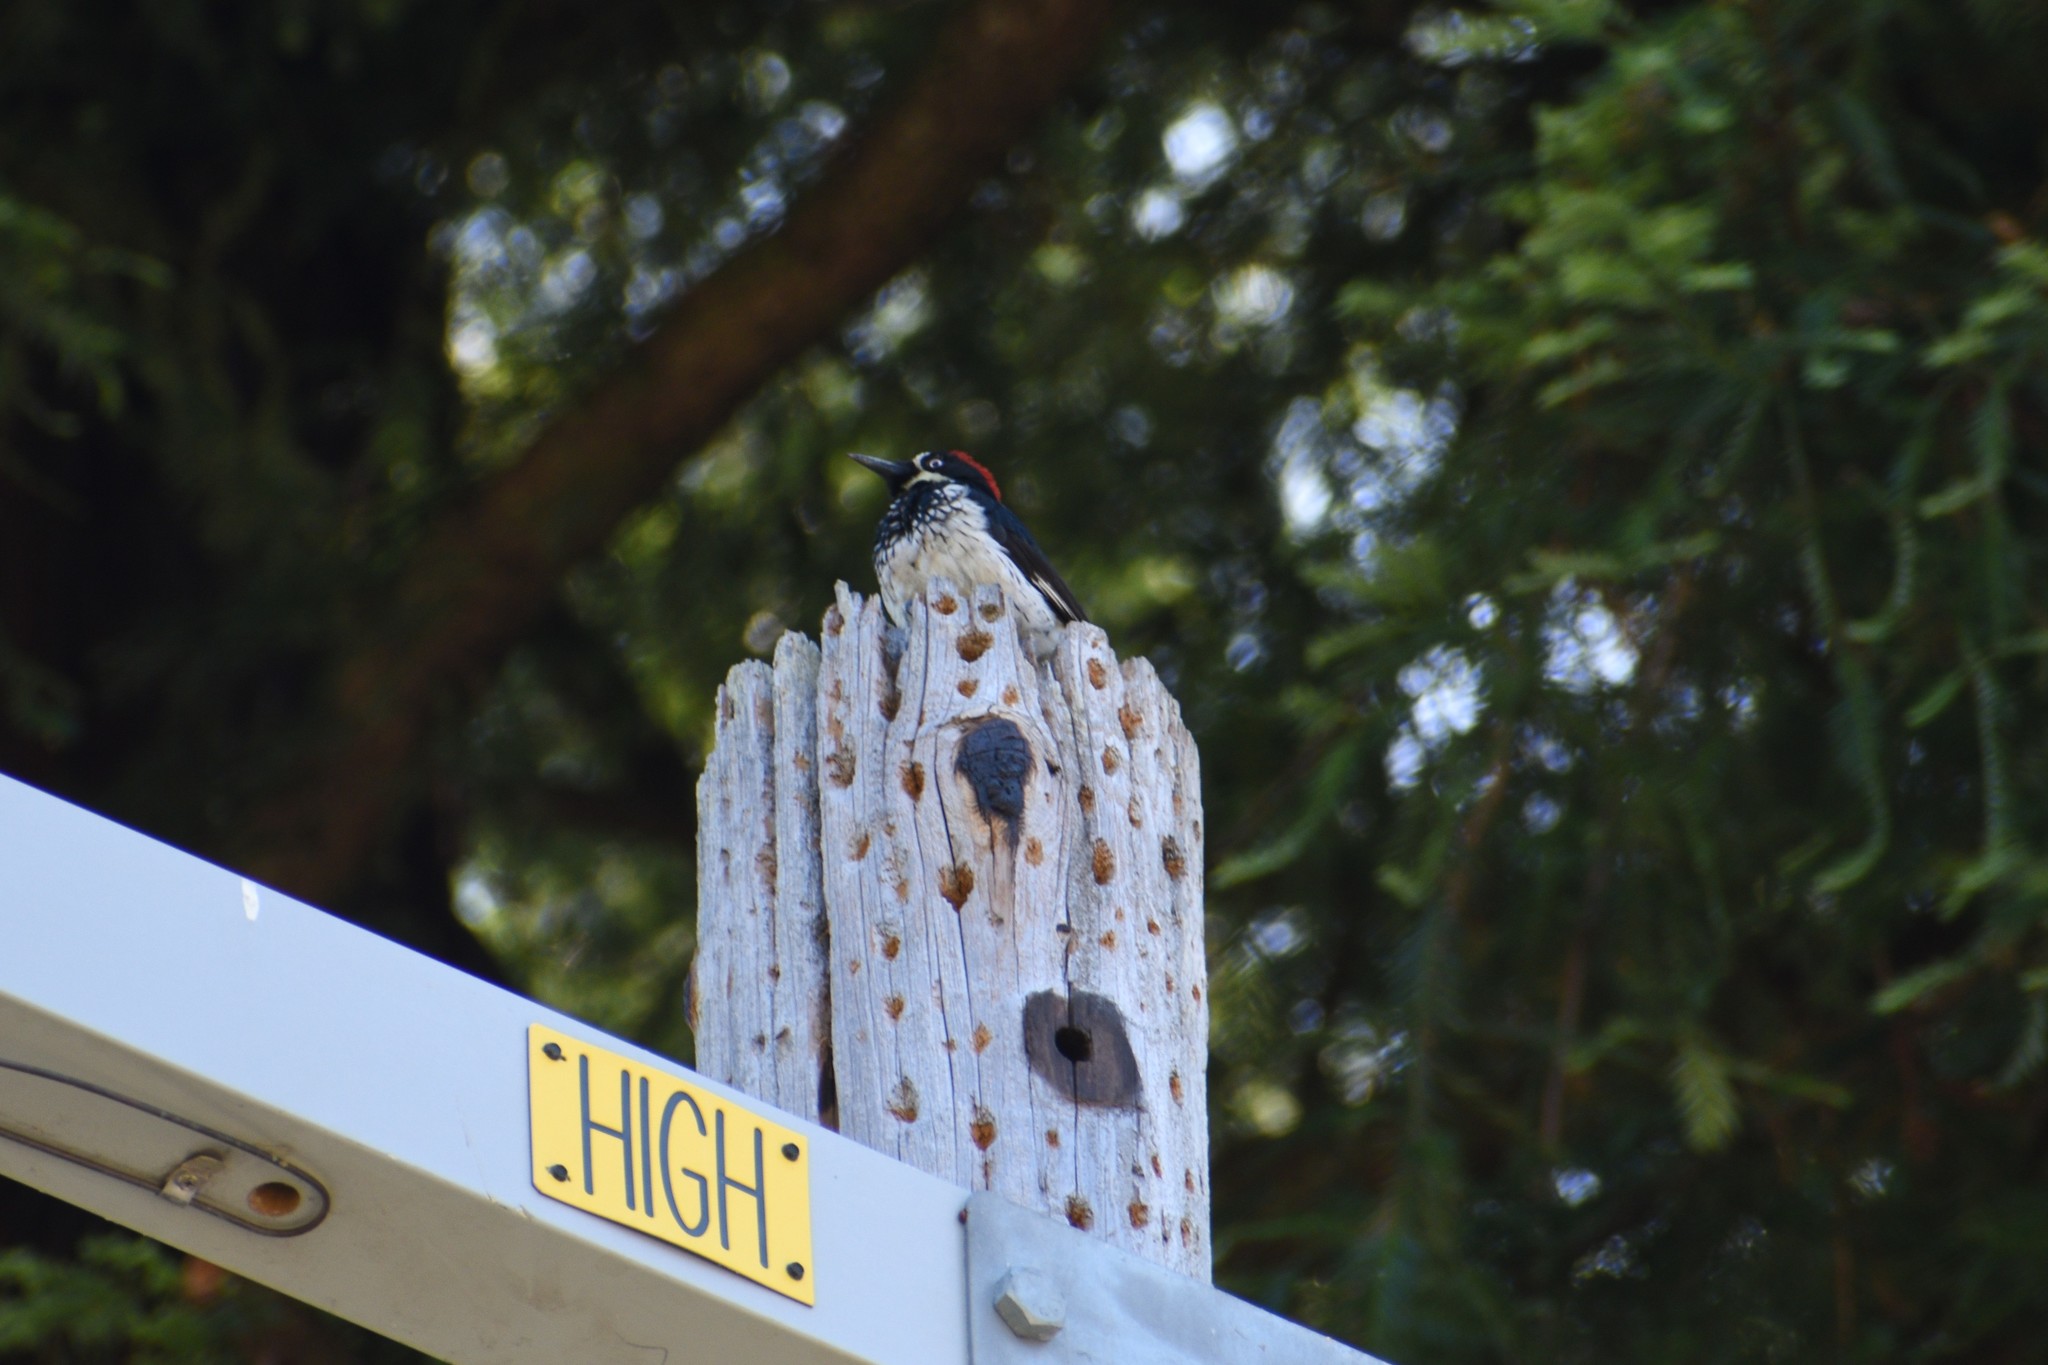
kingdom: Animalia
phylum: Chordata
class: Aves
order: Piciformes
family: Picidae
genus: Melanerpes
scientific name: Melanerpes formicivorus
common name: Acorn woodpecker
